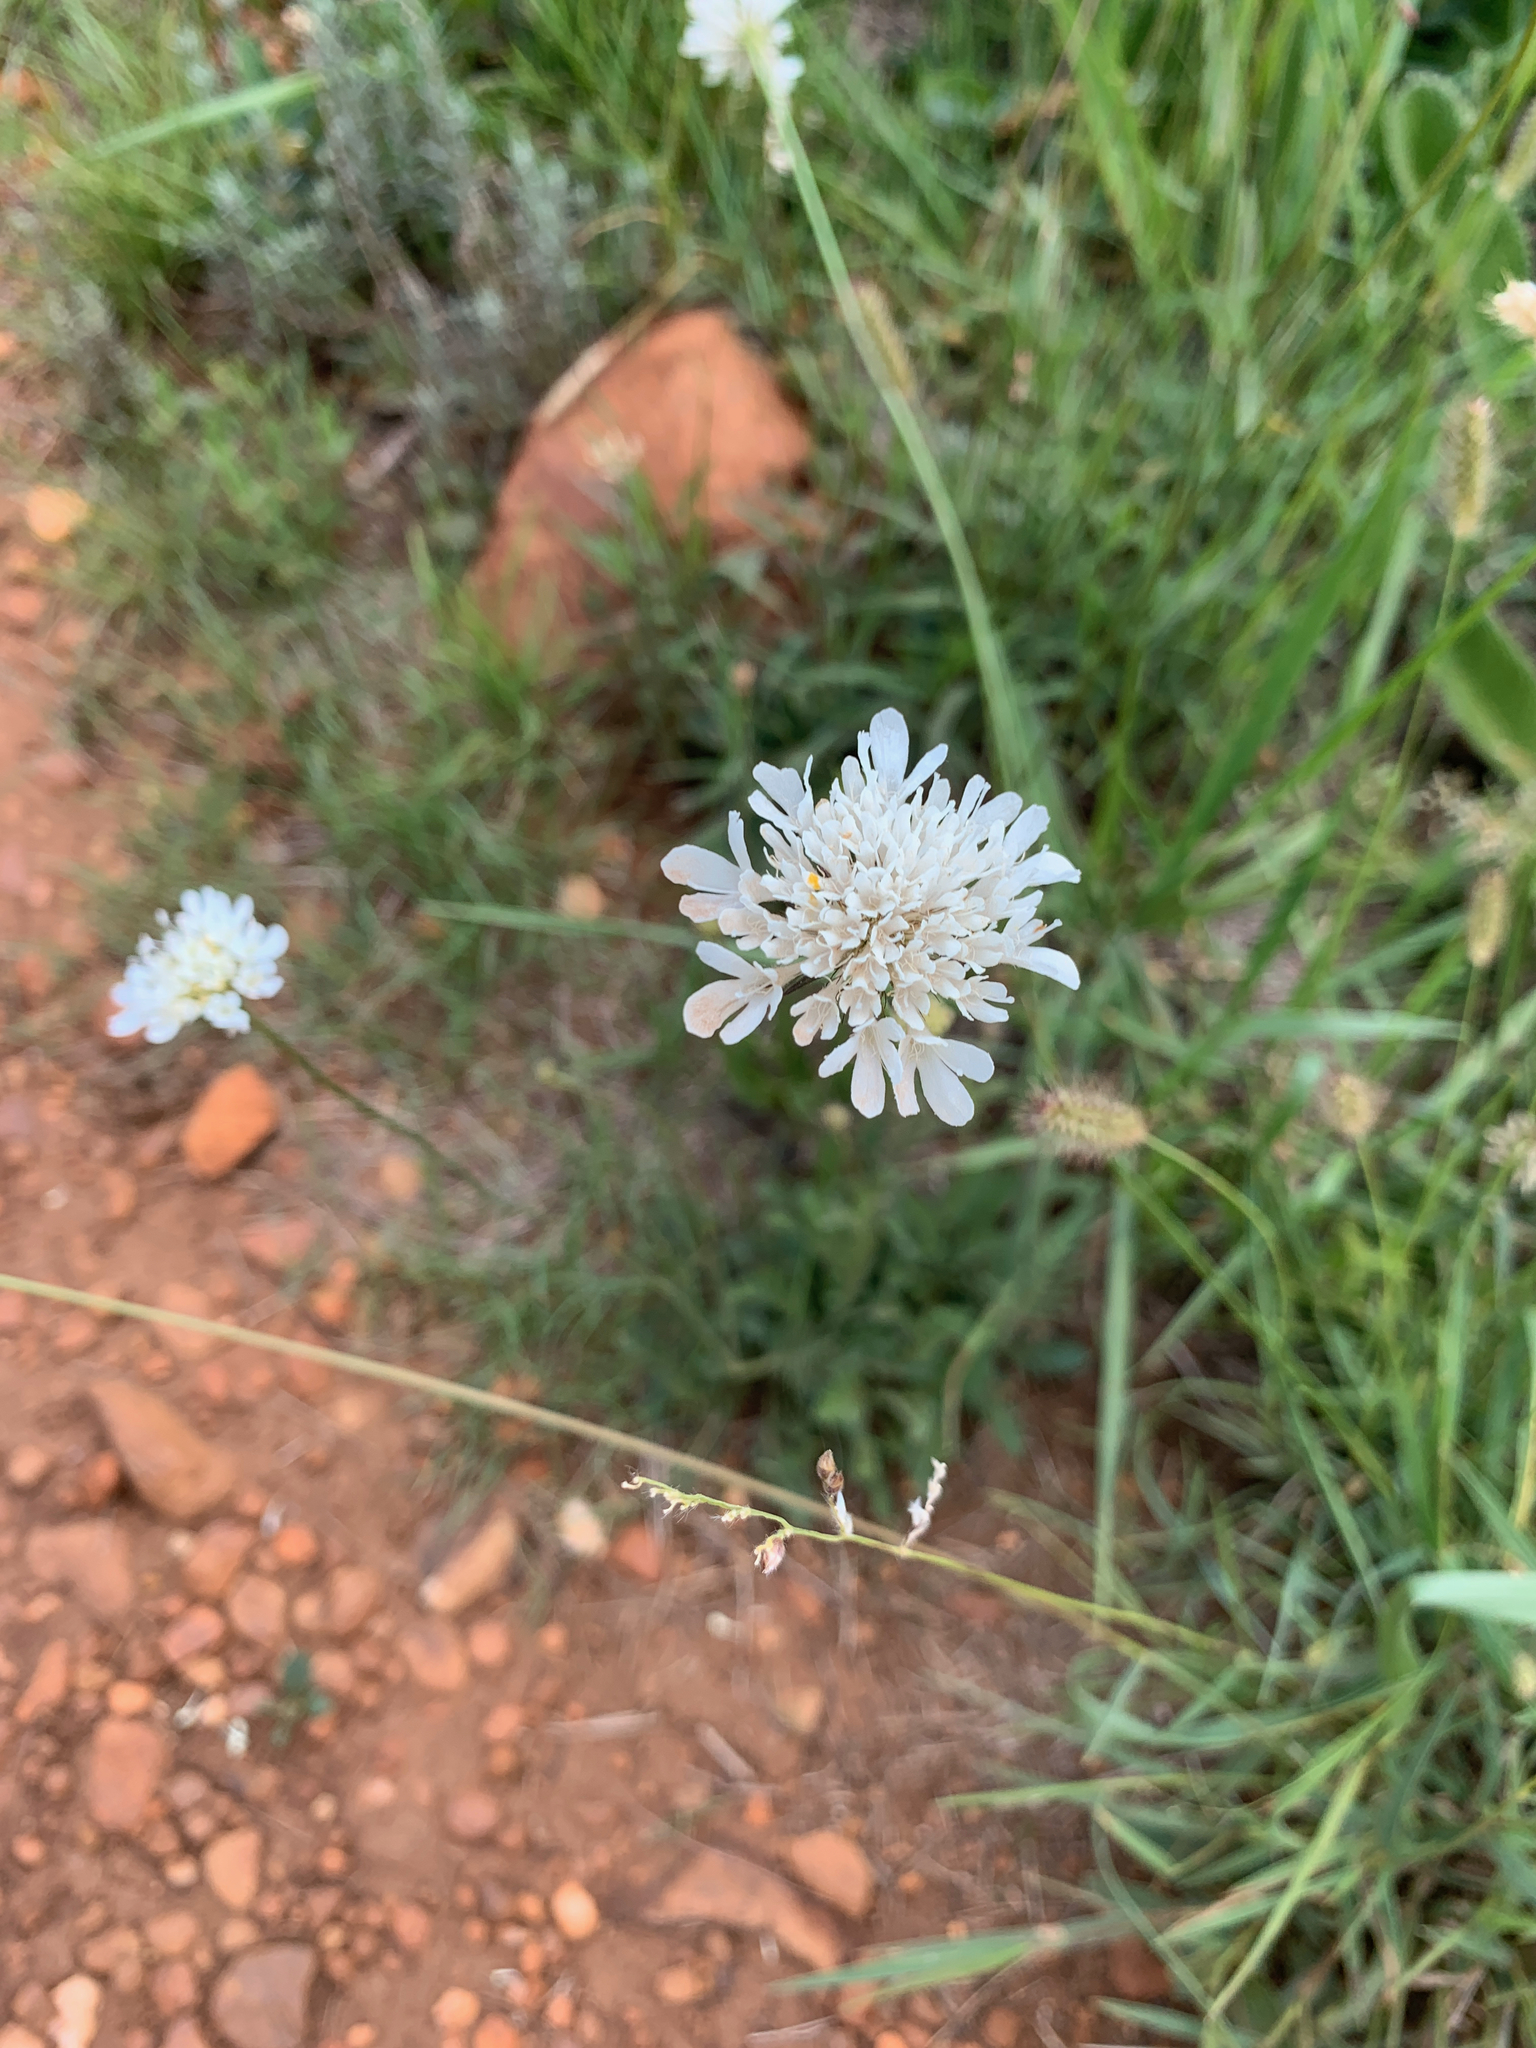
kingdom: Plantae
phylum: Tracheophyta
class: Magnoliopsida
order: Dipsacales
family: Caprifoliaceae
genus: Scabiosa
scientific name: Scabiosa columbaria
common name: Small scabious
